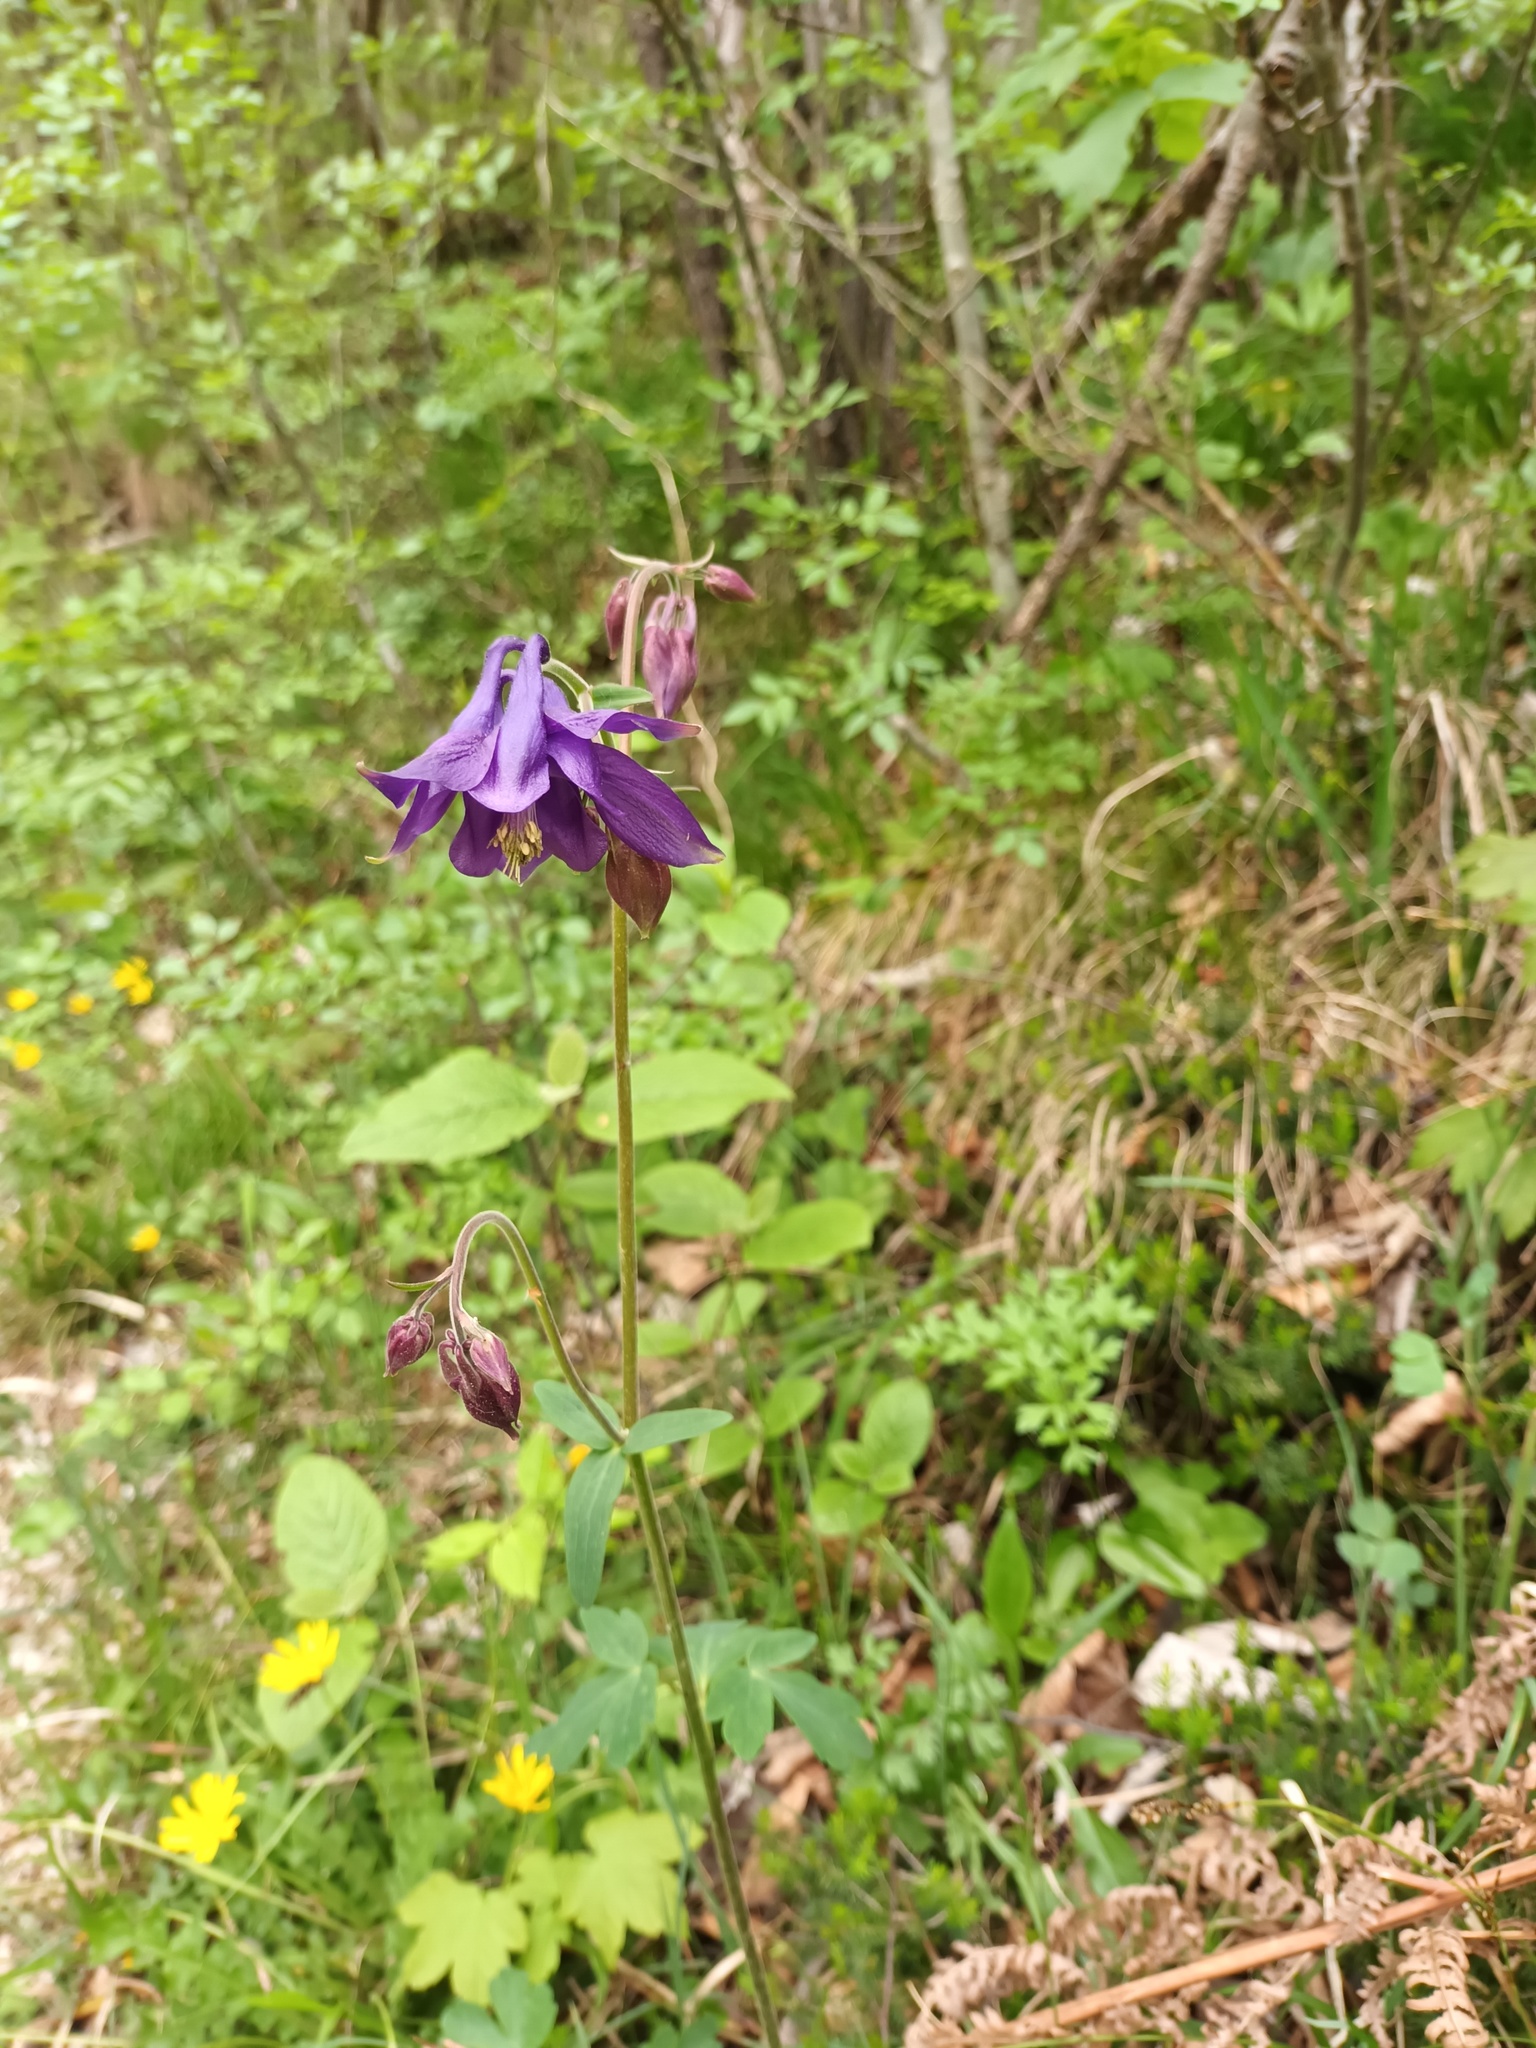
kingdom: Plantae
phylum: Tracheophyta
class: Magnoliopsida
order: Ranunculales
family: Ranunculaceae
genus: Aquilegia
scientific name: Aquilegia vulgaris
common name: Columbine
